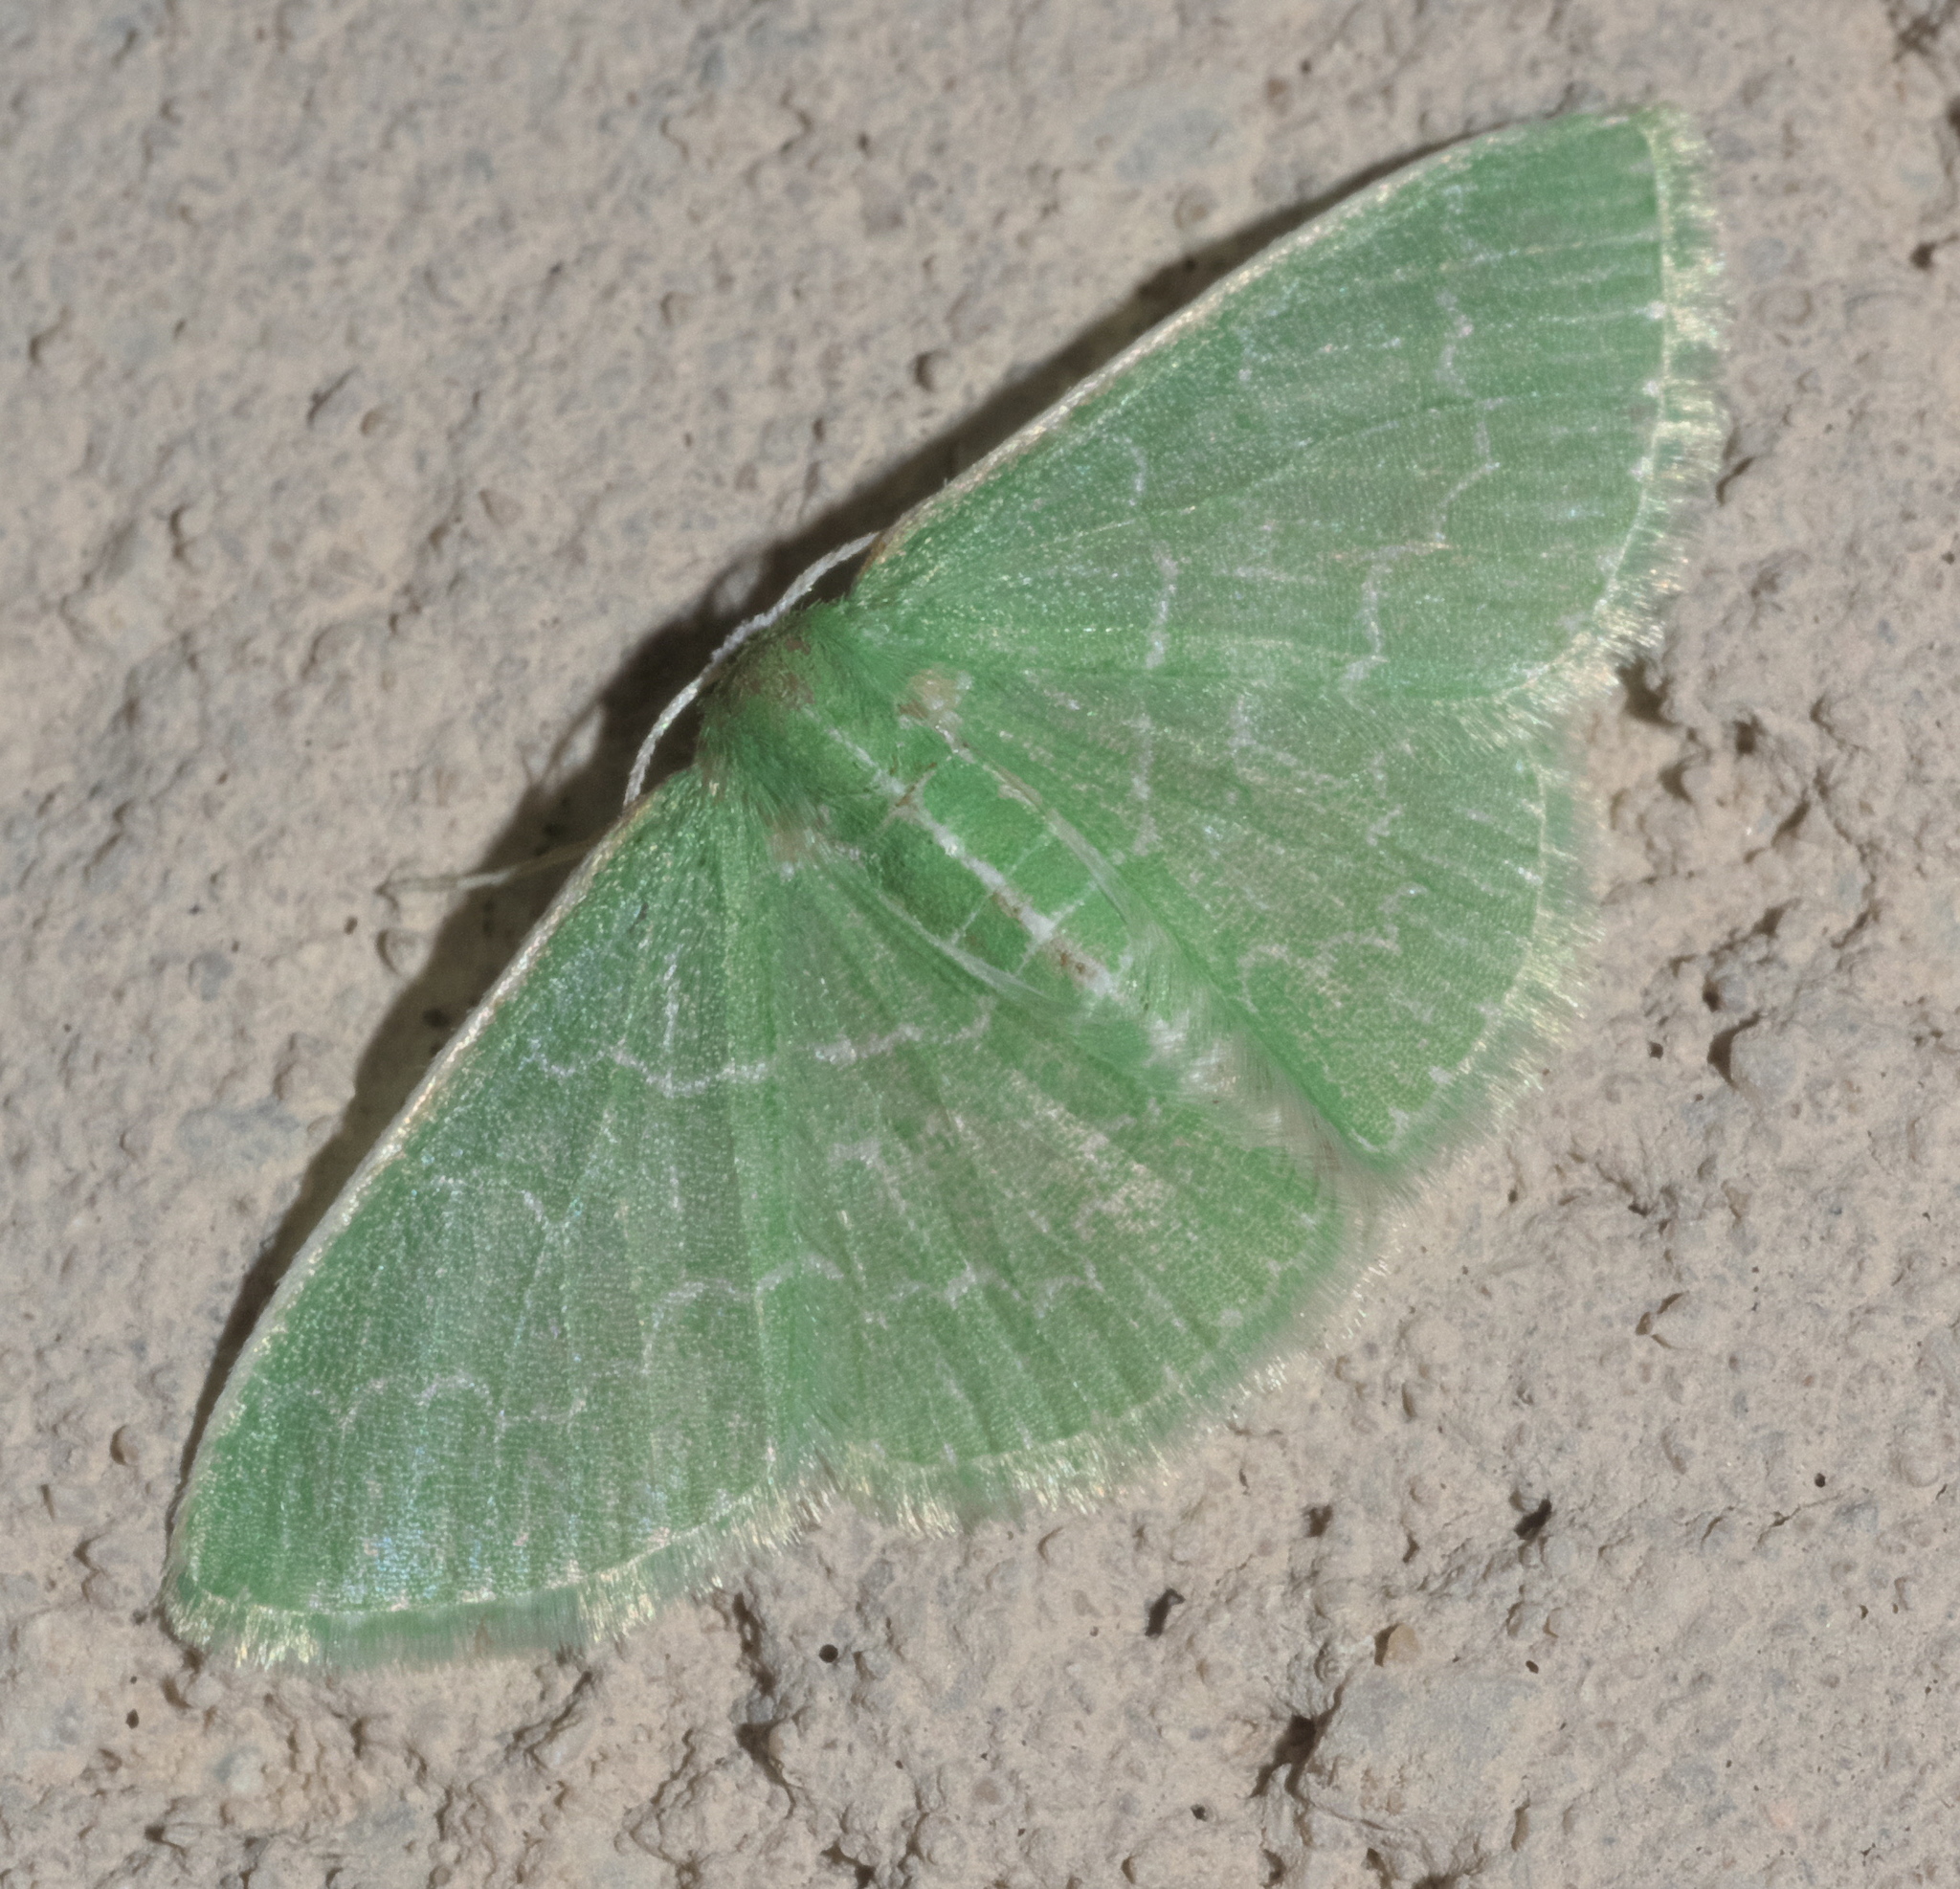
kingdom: Animalia
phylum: Arthropoda
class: Insecta
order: Lepidoptera
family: Geometridae
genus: Synchlora
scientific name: Synchlora frondaria
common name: Southern emerald
